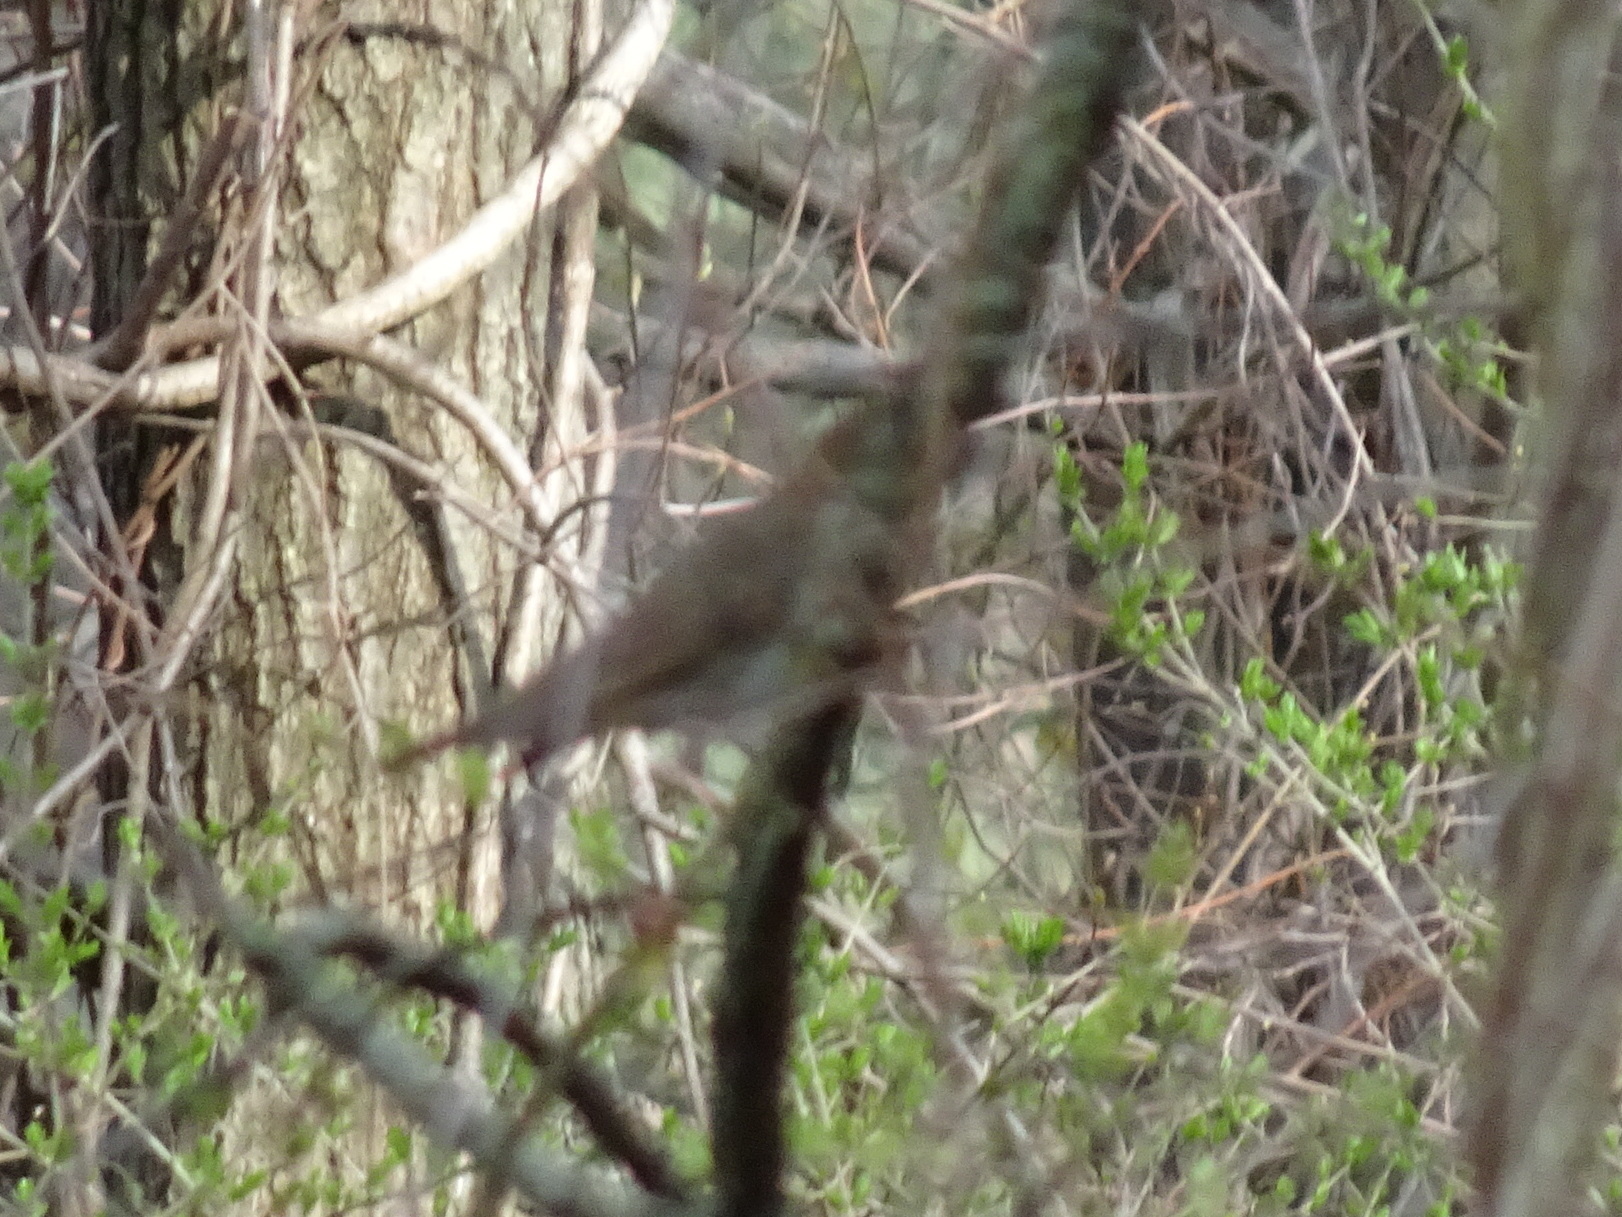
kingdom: Animalia
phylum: Chordata
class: Aves
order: Passeriformes
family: Turdidae
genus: Catharus
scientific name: Catharus ustulatus
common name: Swainson's thrush
